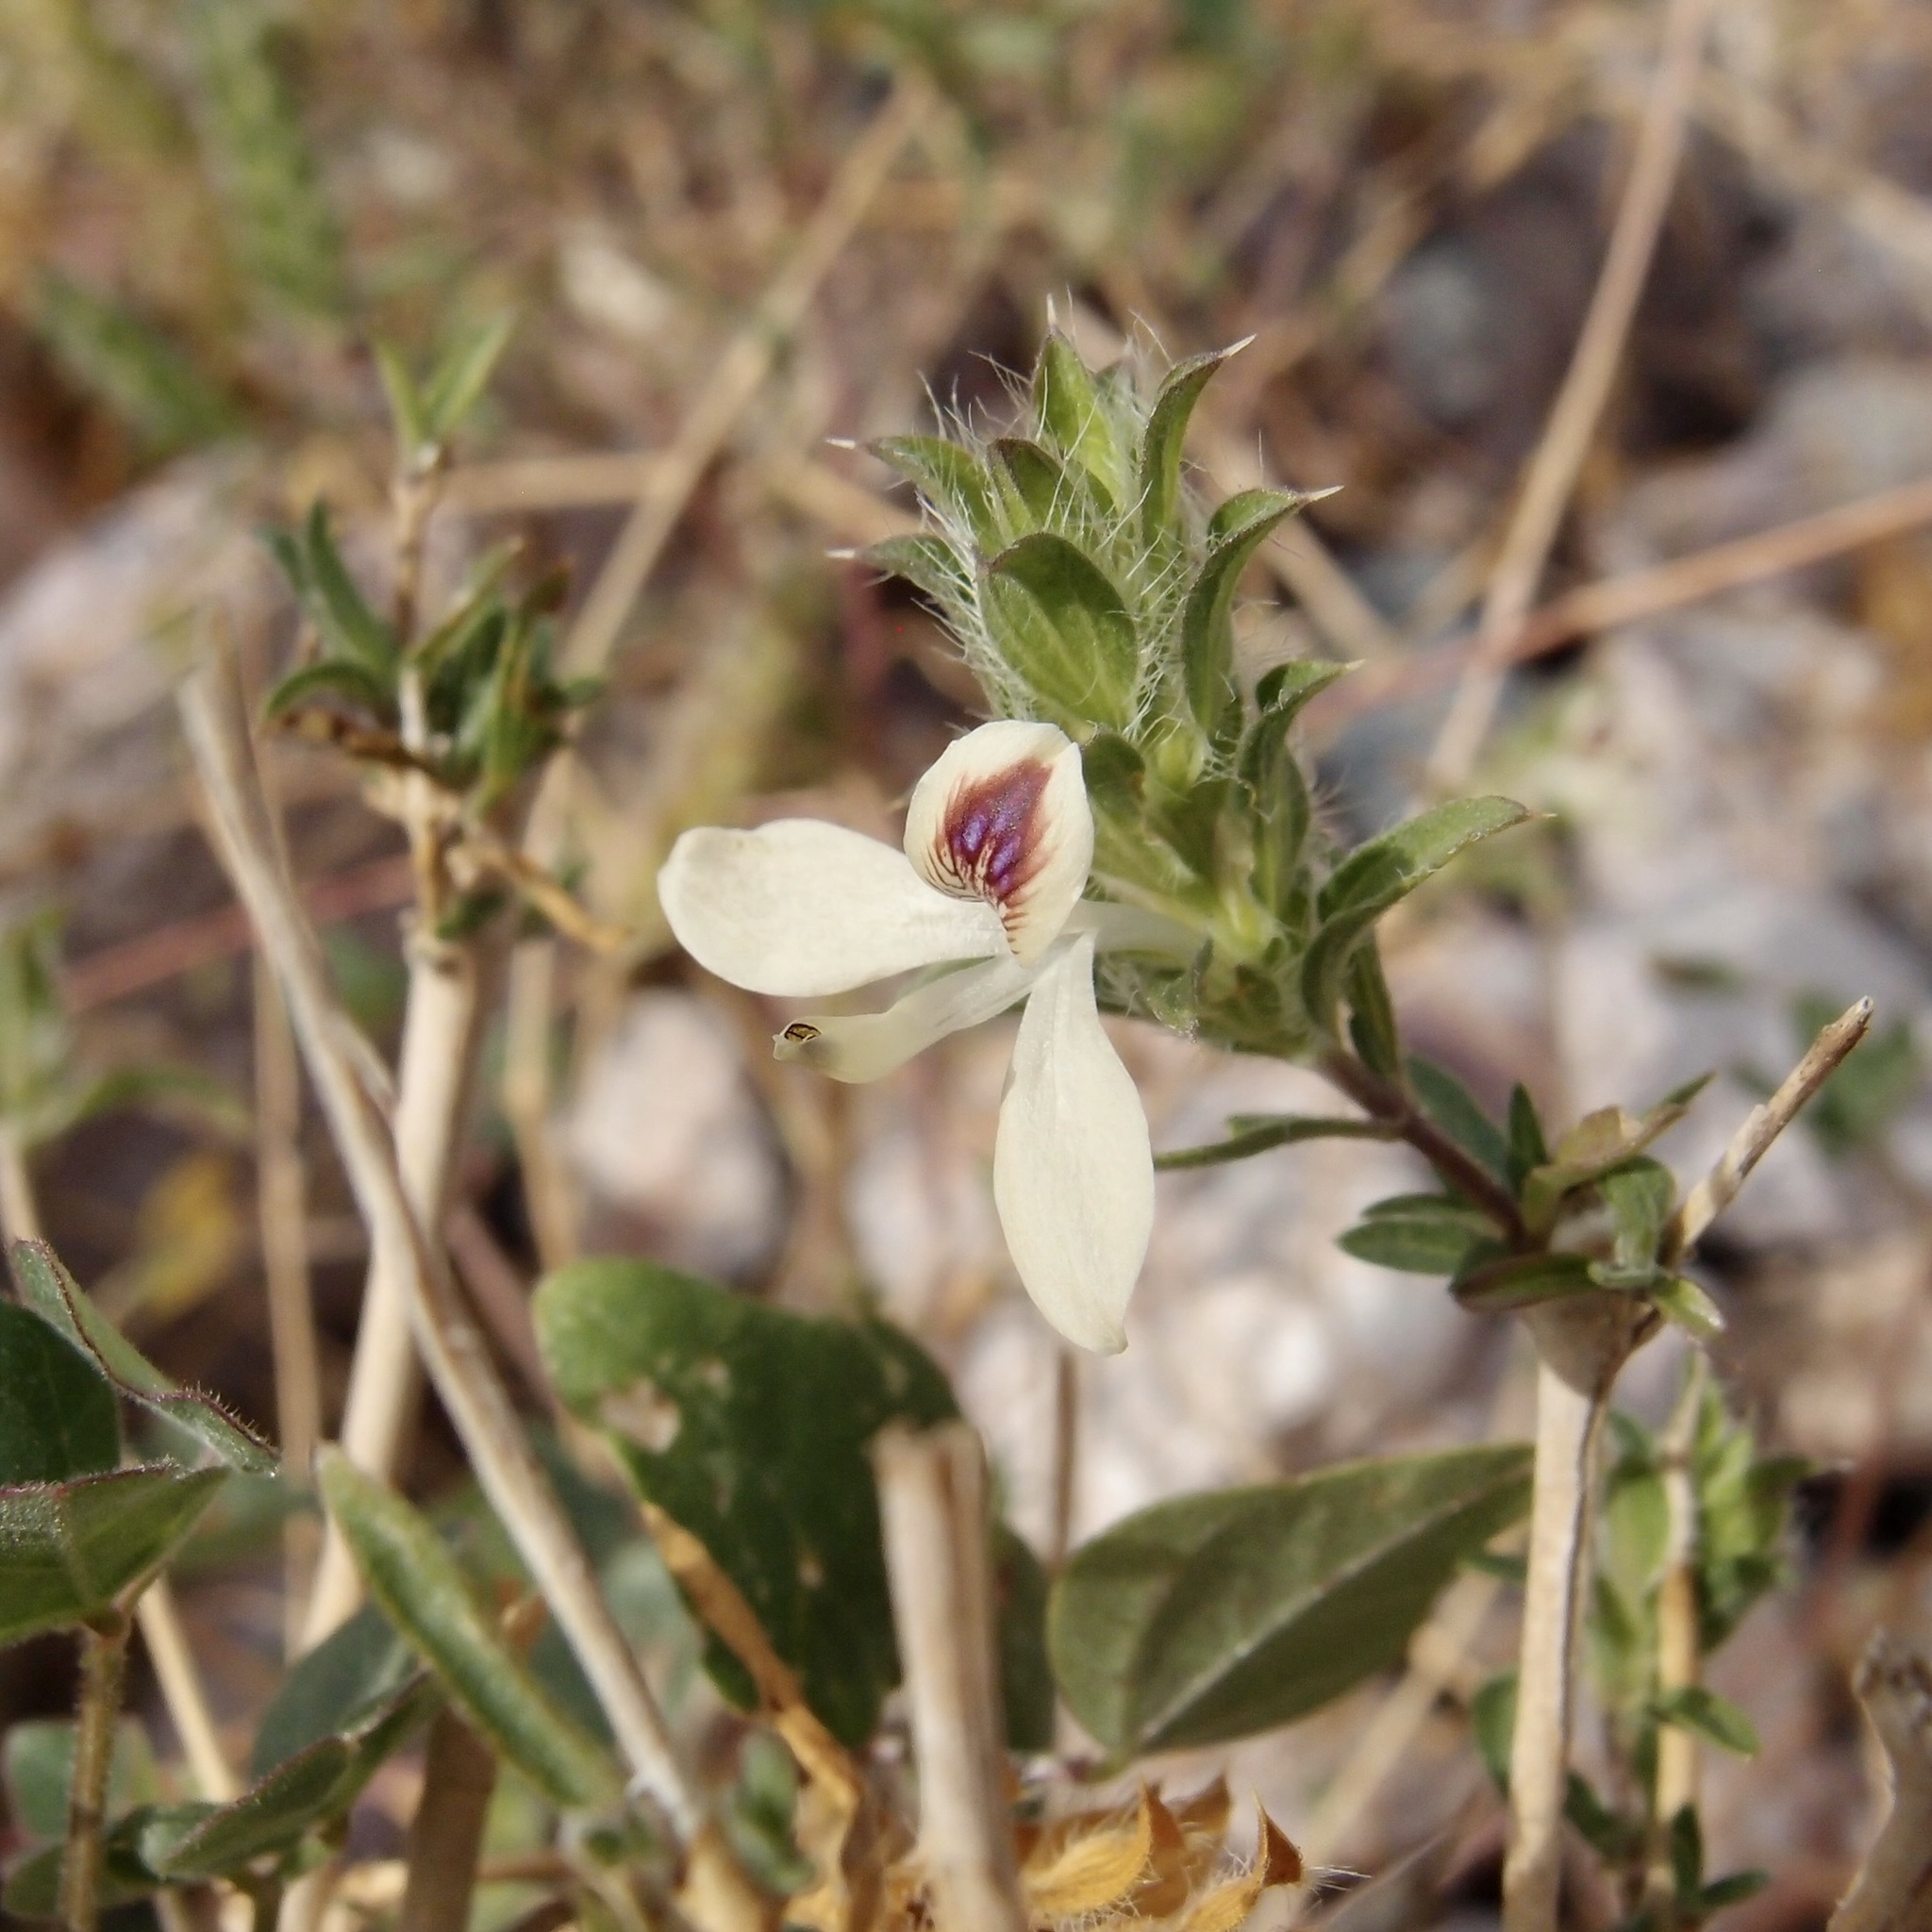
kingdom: Plantae
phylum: Tracheophyta
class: Magnoliopsida
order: Lamiales
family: Acanthaceae
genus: Tetramerium
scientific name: Tetramerium nervosum
